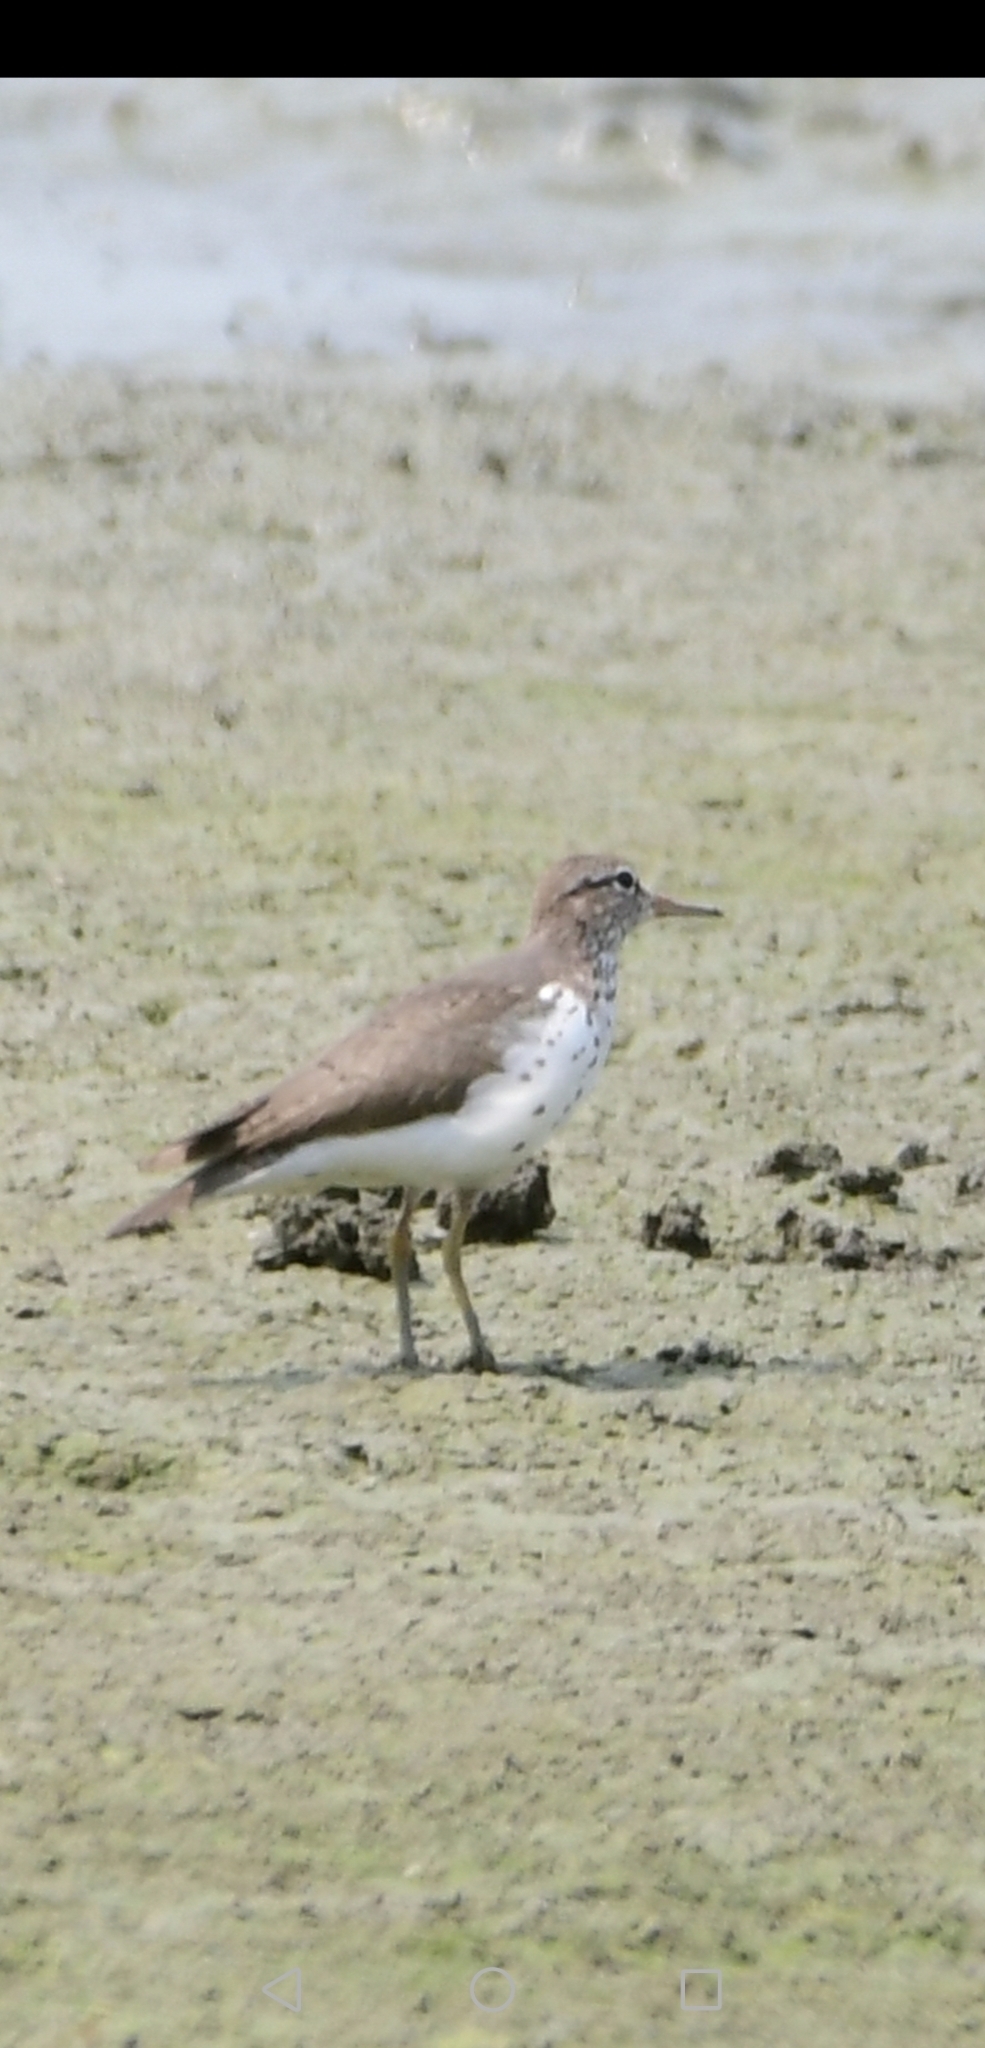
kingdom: Animalia
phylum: Chordata
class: Aves
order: Charadriiformes
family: Scolopacidae
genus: Actitis
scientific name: Actitis macularius
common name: Spotted sandpiper
